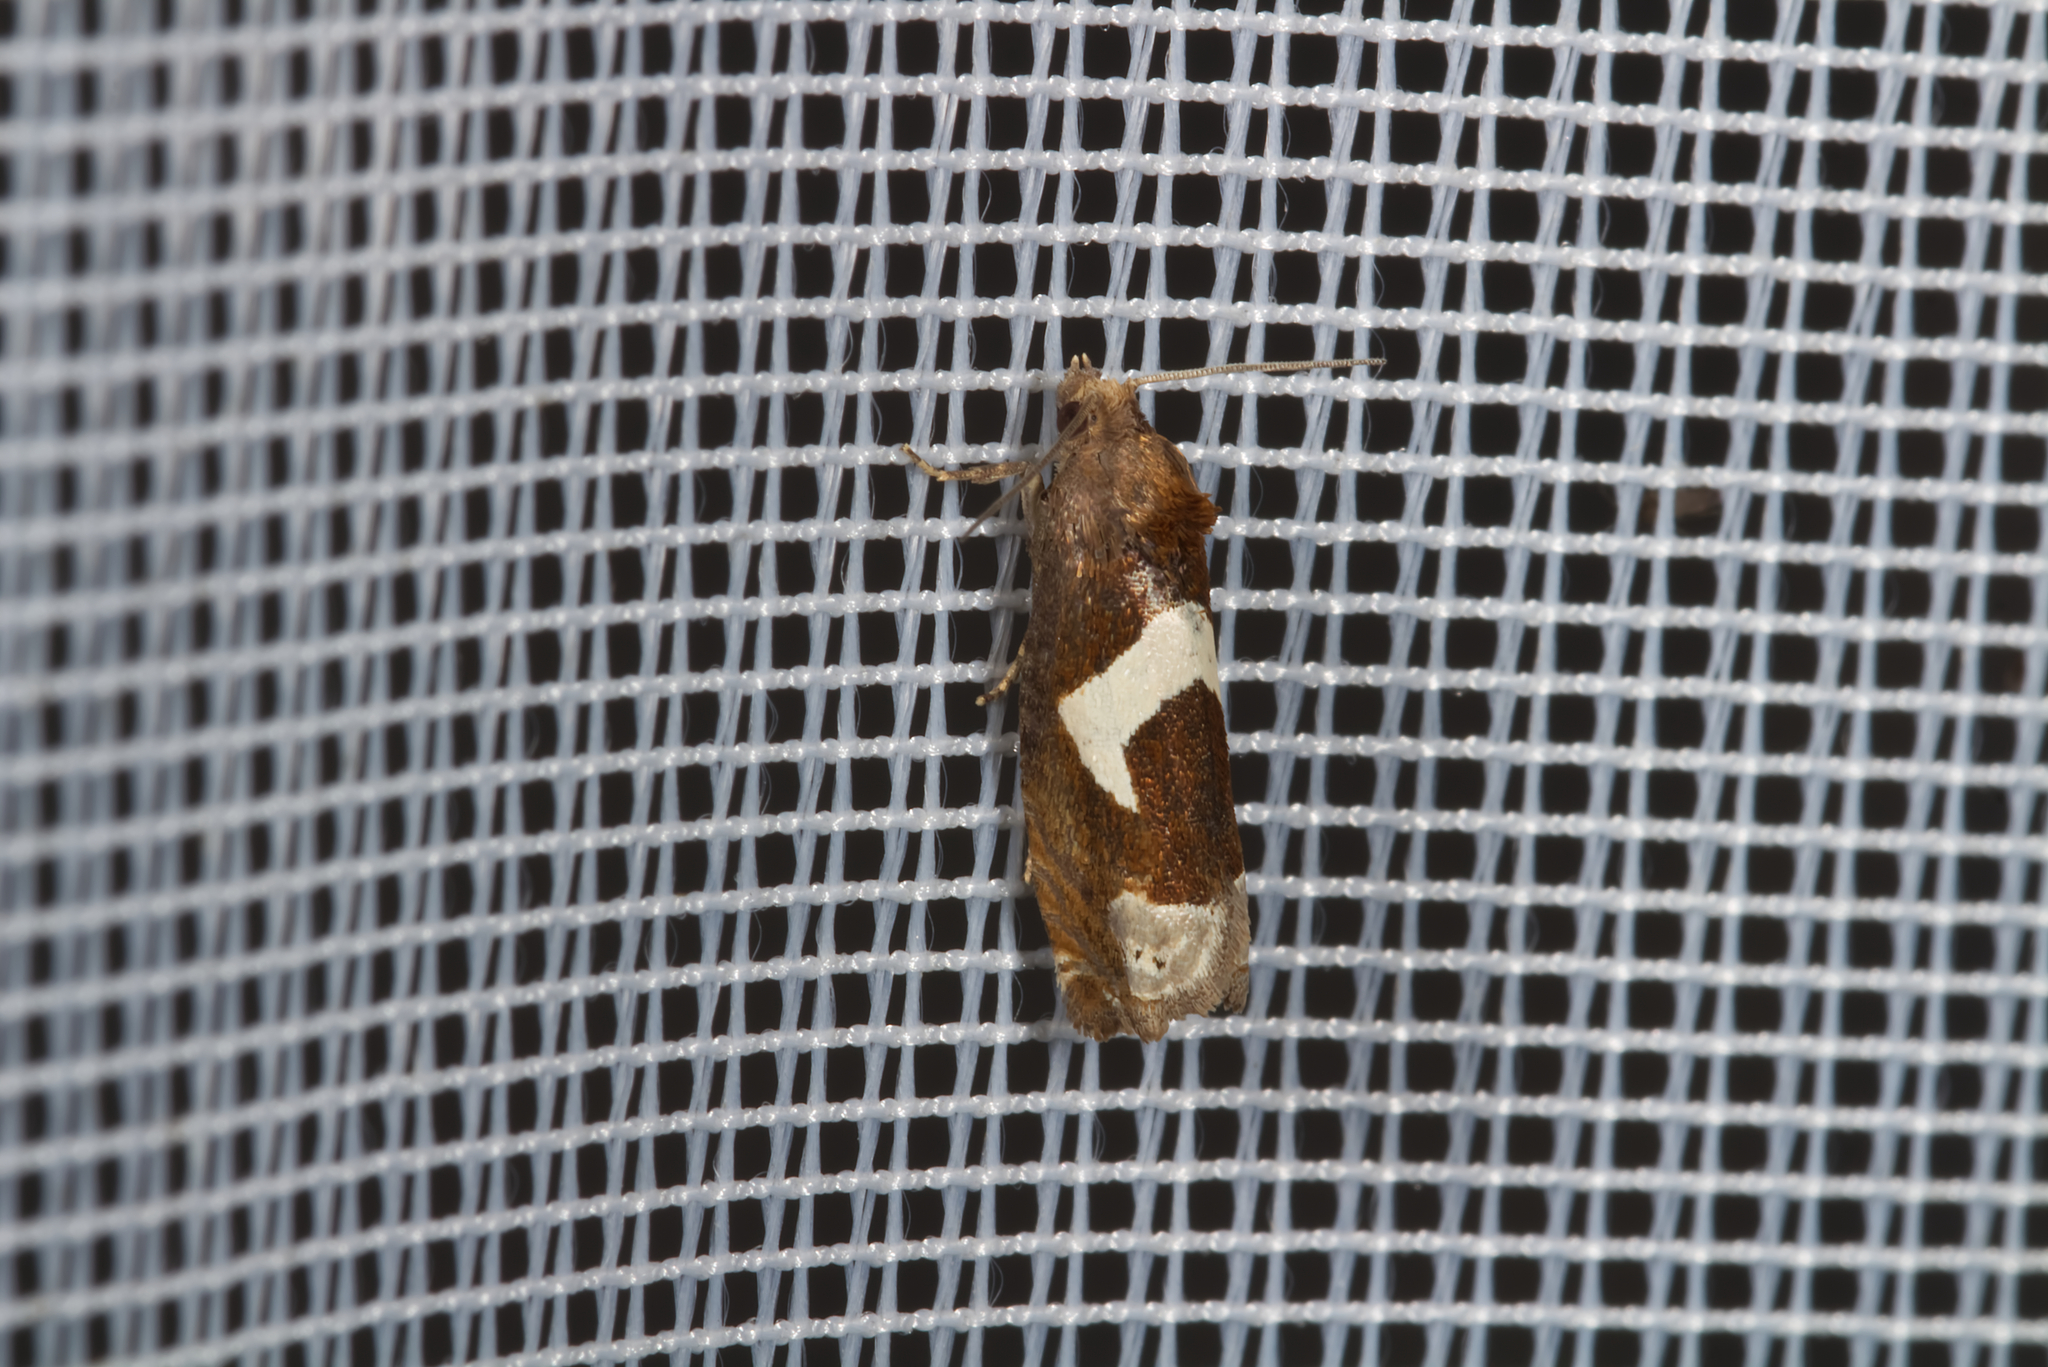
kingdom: Animalia
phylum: Arthropoda
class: Insecta
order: Lepidoptera
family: Tortricidae
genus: Epiblema
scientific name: Epiblema foenella
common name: White-foot bell
